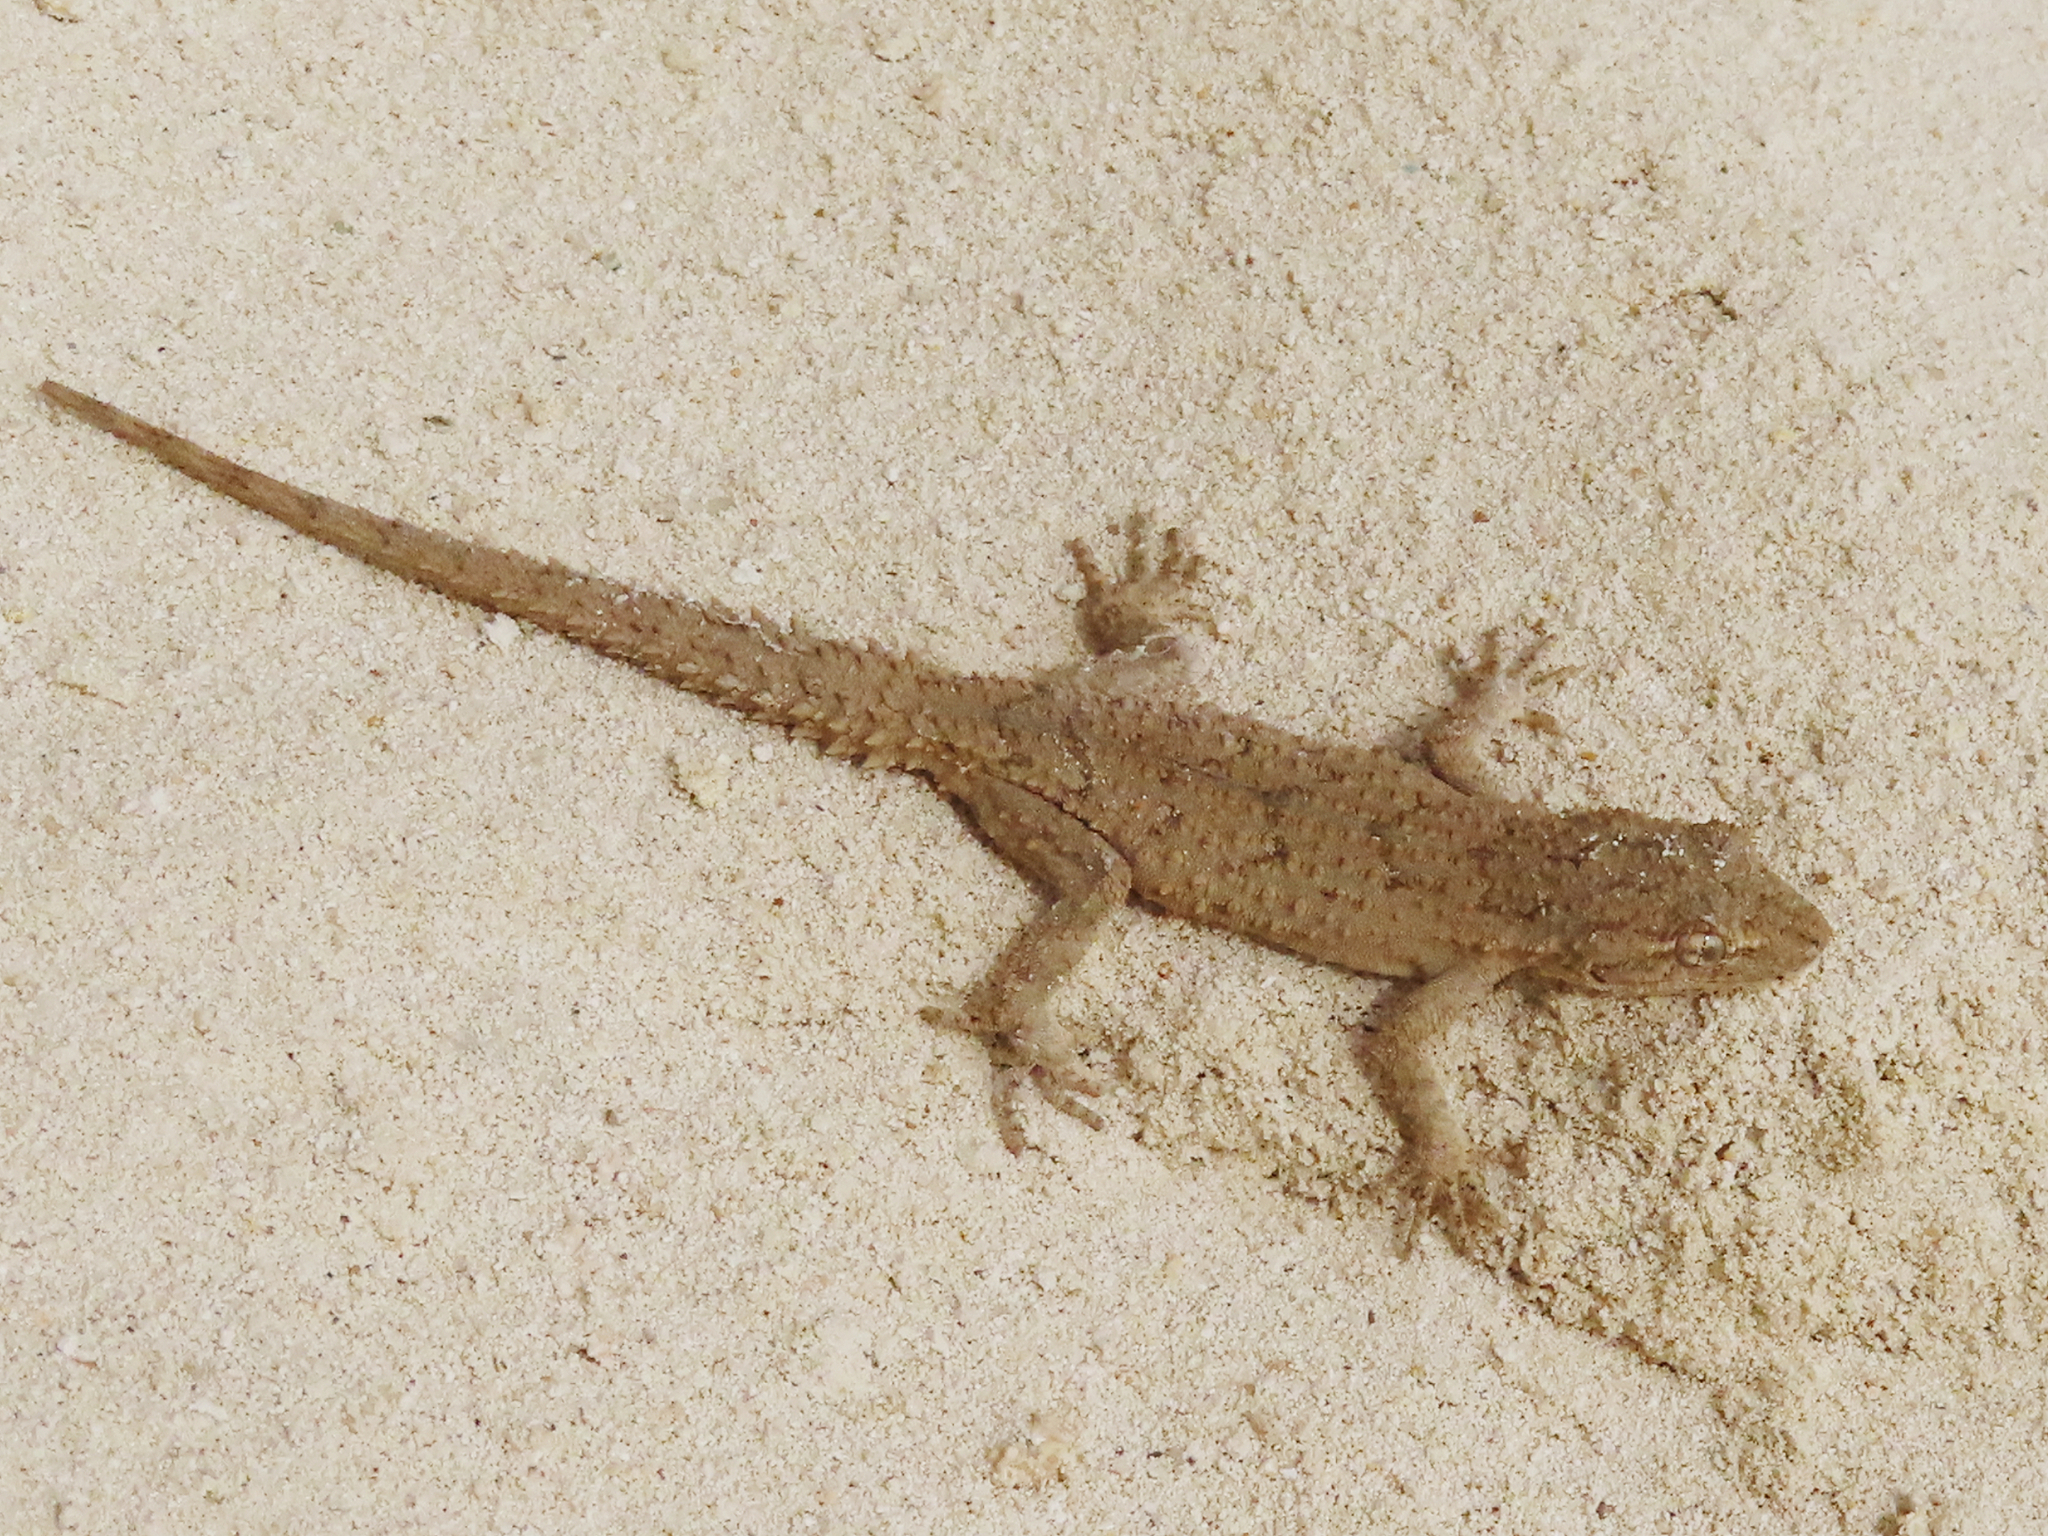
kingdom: Animalia
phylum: Chordata
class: Squamata
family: Gekkonidae
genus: Mediodactylus
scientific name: Mediodactylus russowii
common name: Grey thin-toed gecko
